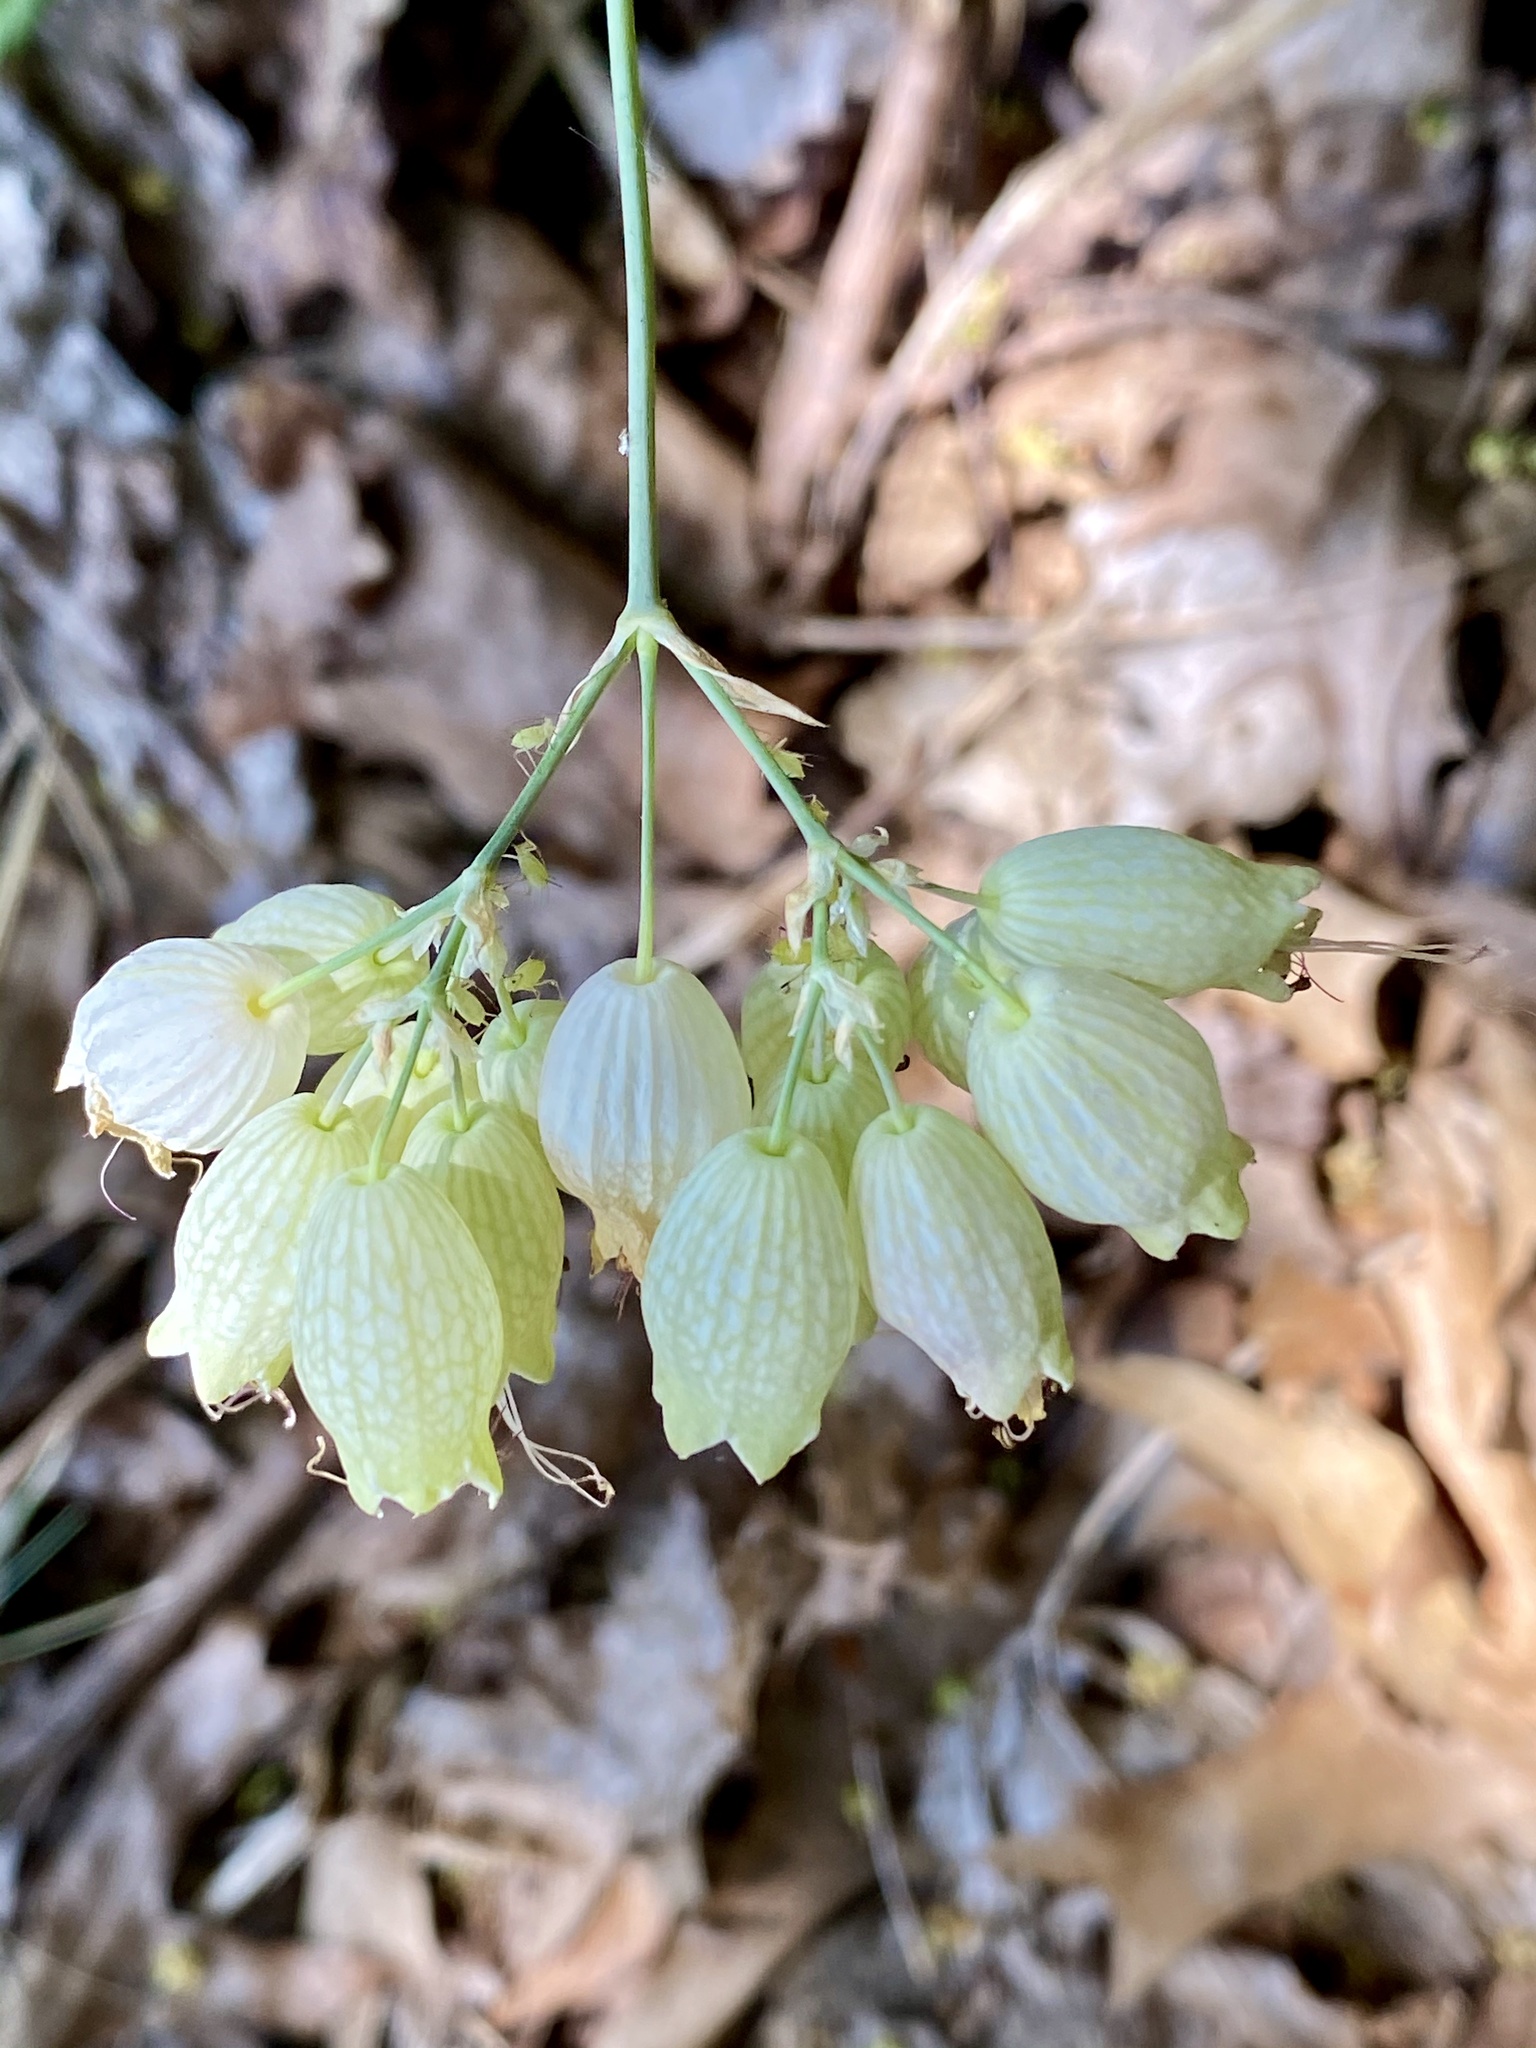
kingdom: Plantae
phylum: Tracheophyta
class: Magnoliopsida
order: Caryophyllales
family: Caryophyllaceae
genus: Silene
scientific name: Silene vulgaris
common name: Bladder campion
